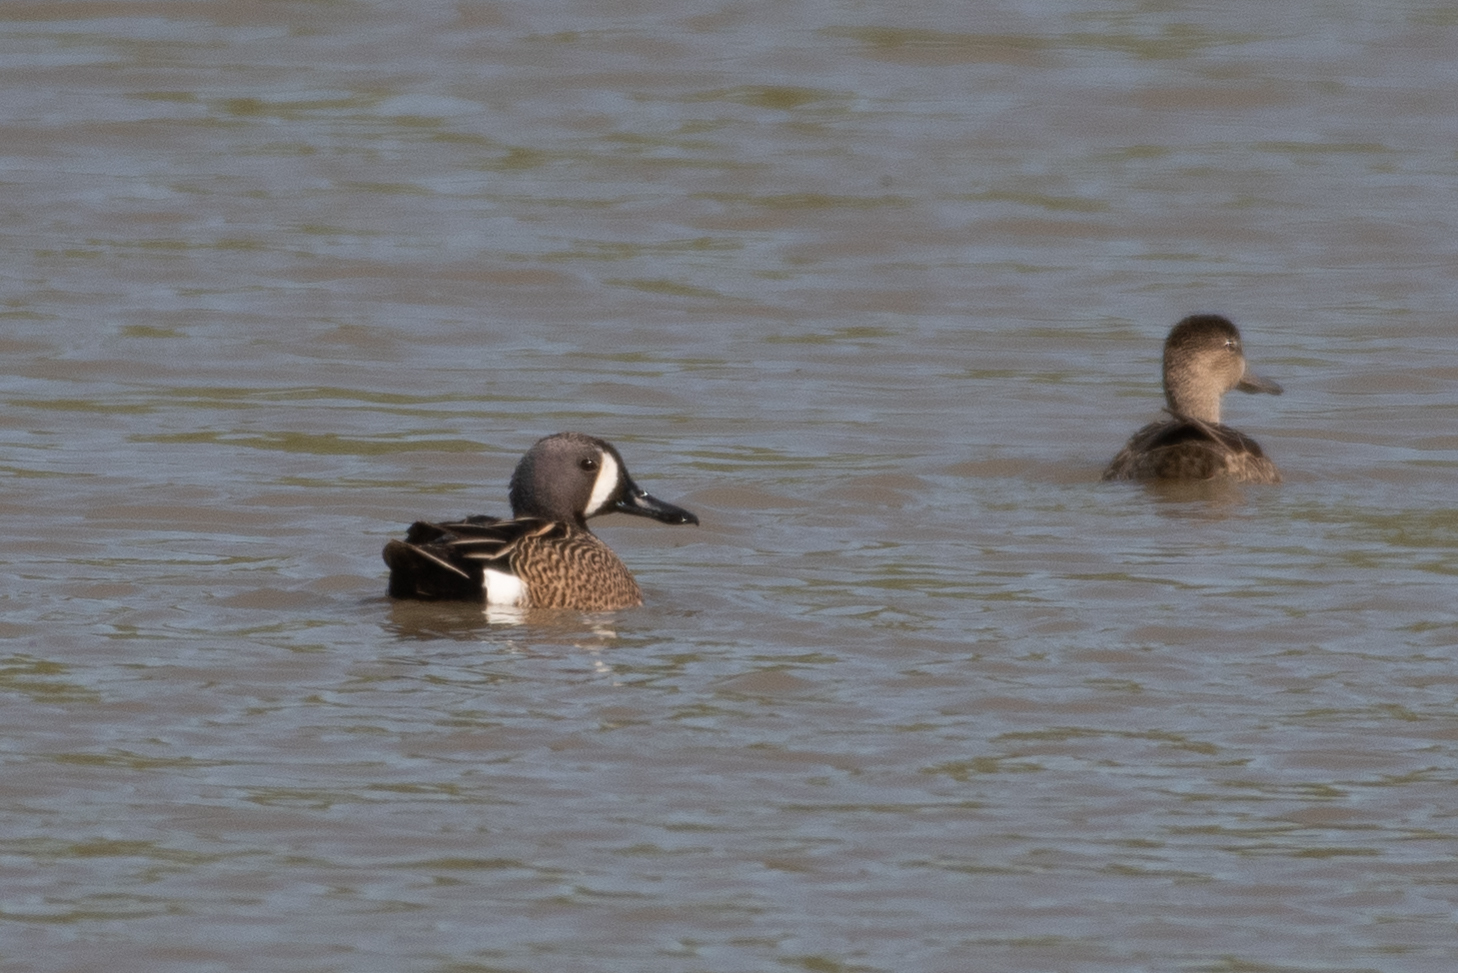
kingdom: Animalia
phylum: Chordata
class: Aves
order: Anseriformes
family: Anatidae
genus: Spatula
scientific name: Spatula discors
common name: Blue-winged teal
